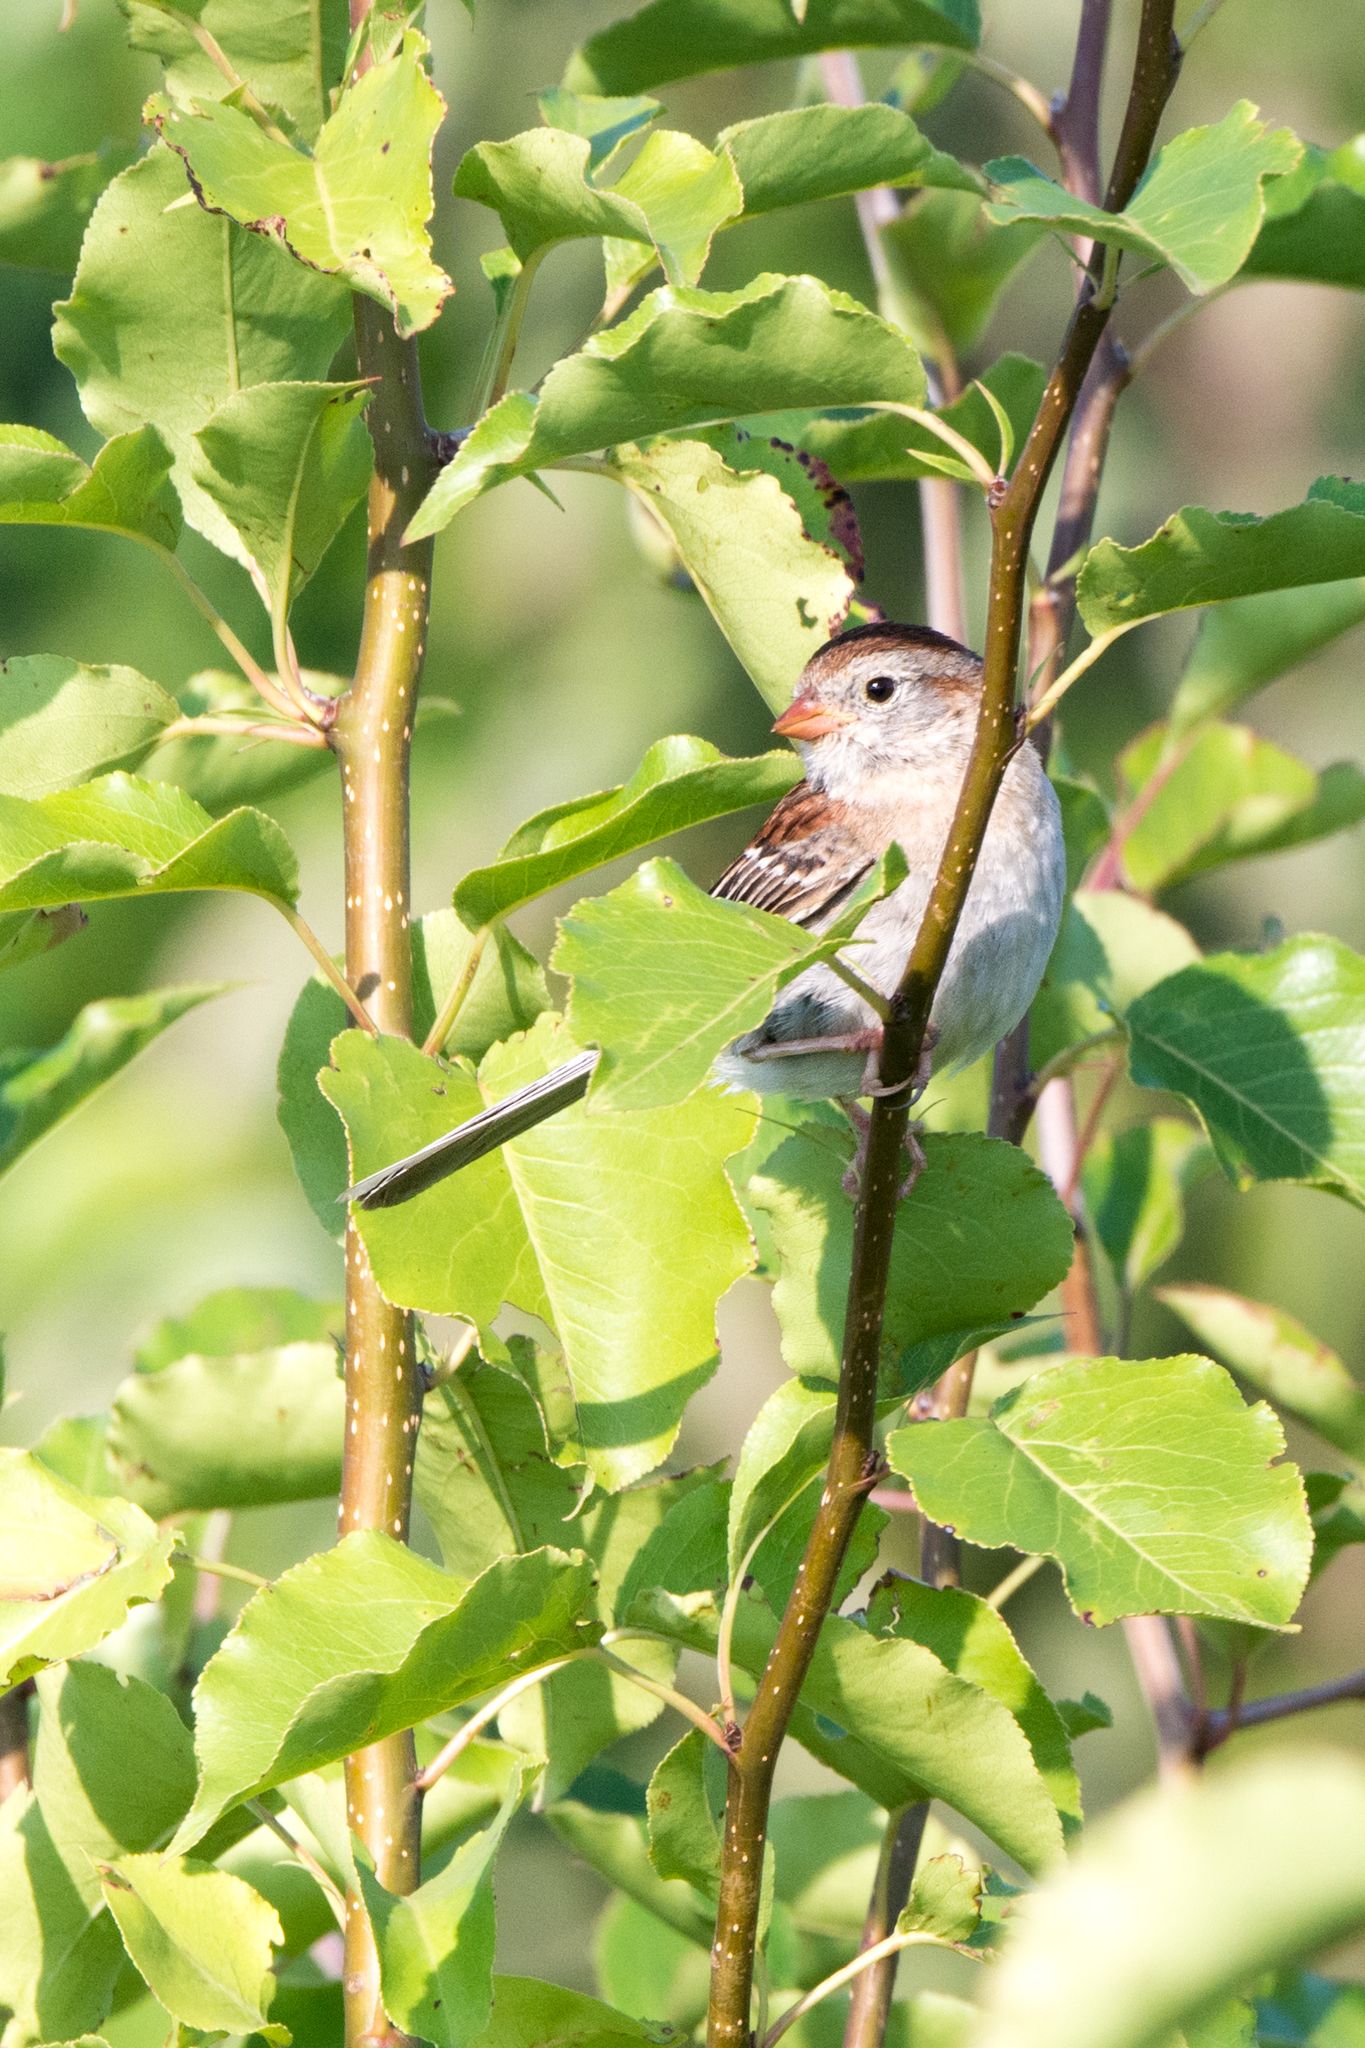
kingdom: Animalia
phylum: Chordata
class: Aves
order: Passeriformes
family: Passerellidae
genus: Spizella
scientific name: Spizella pusilla
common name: Field sparrow
